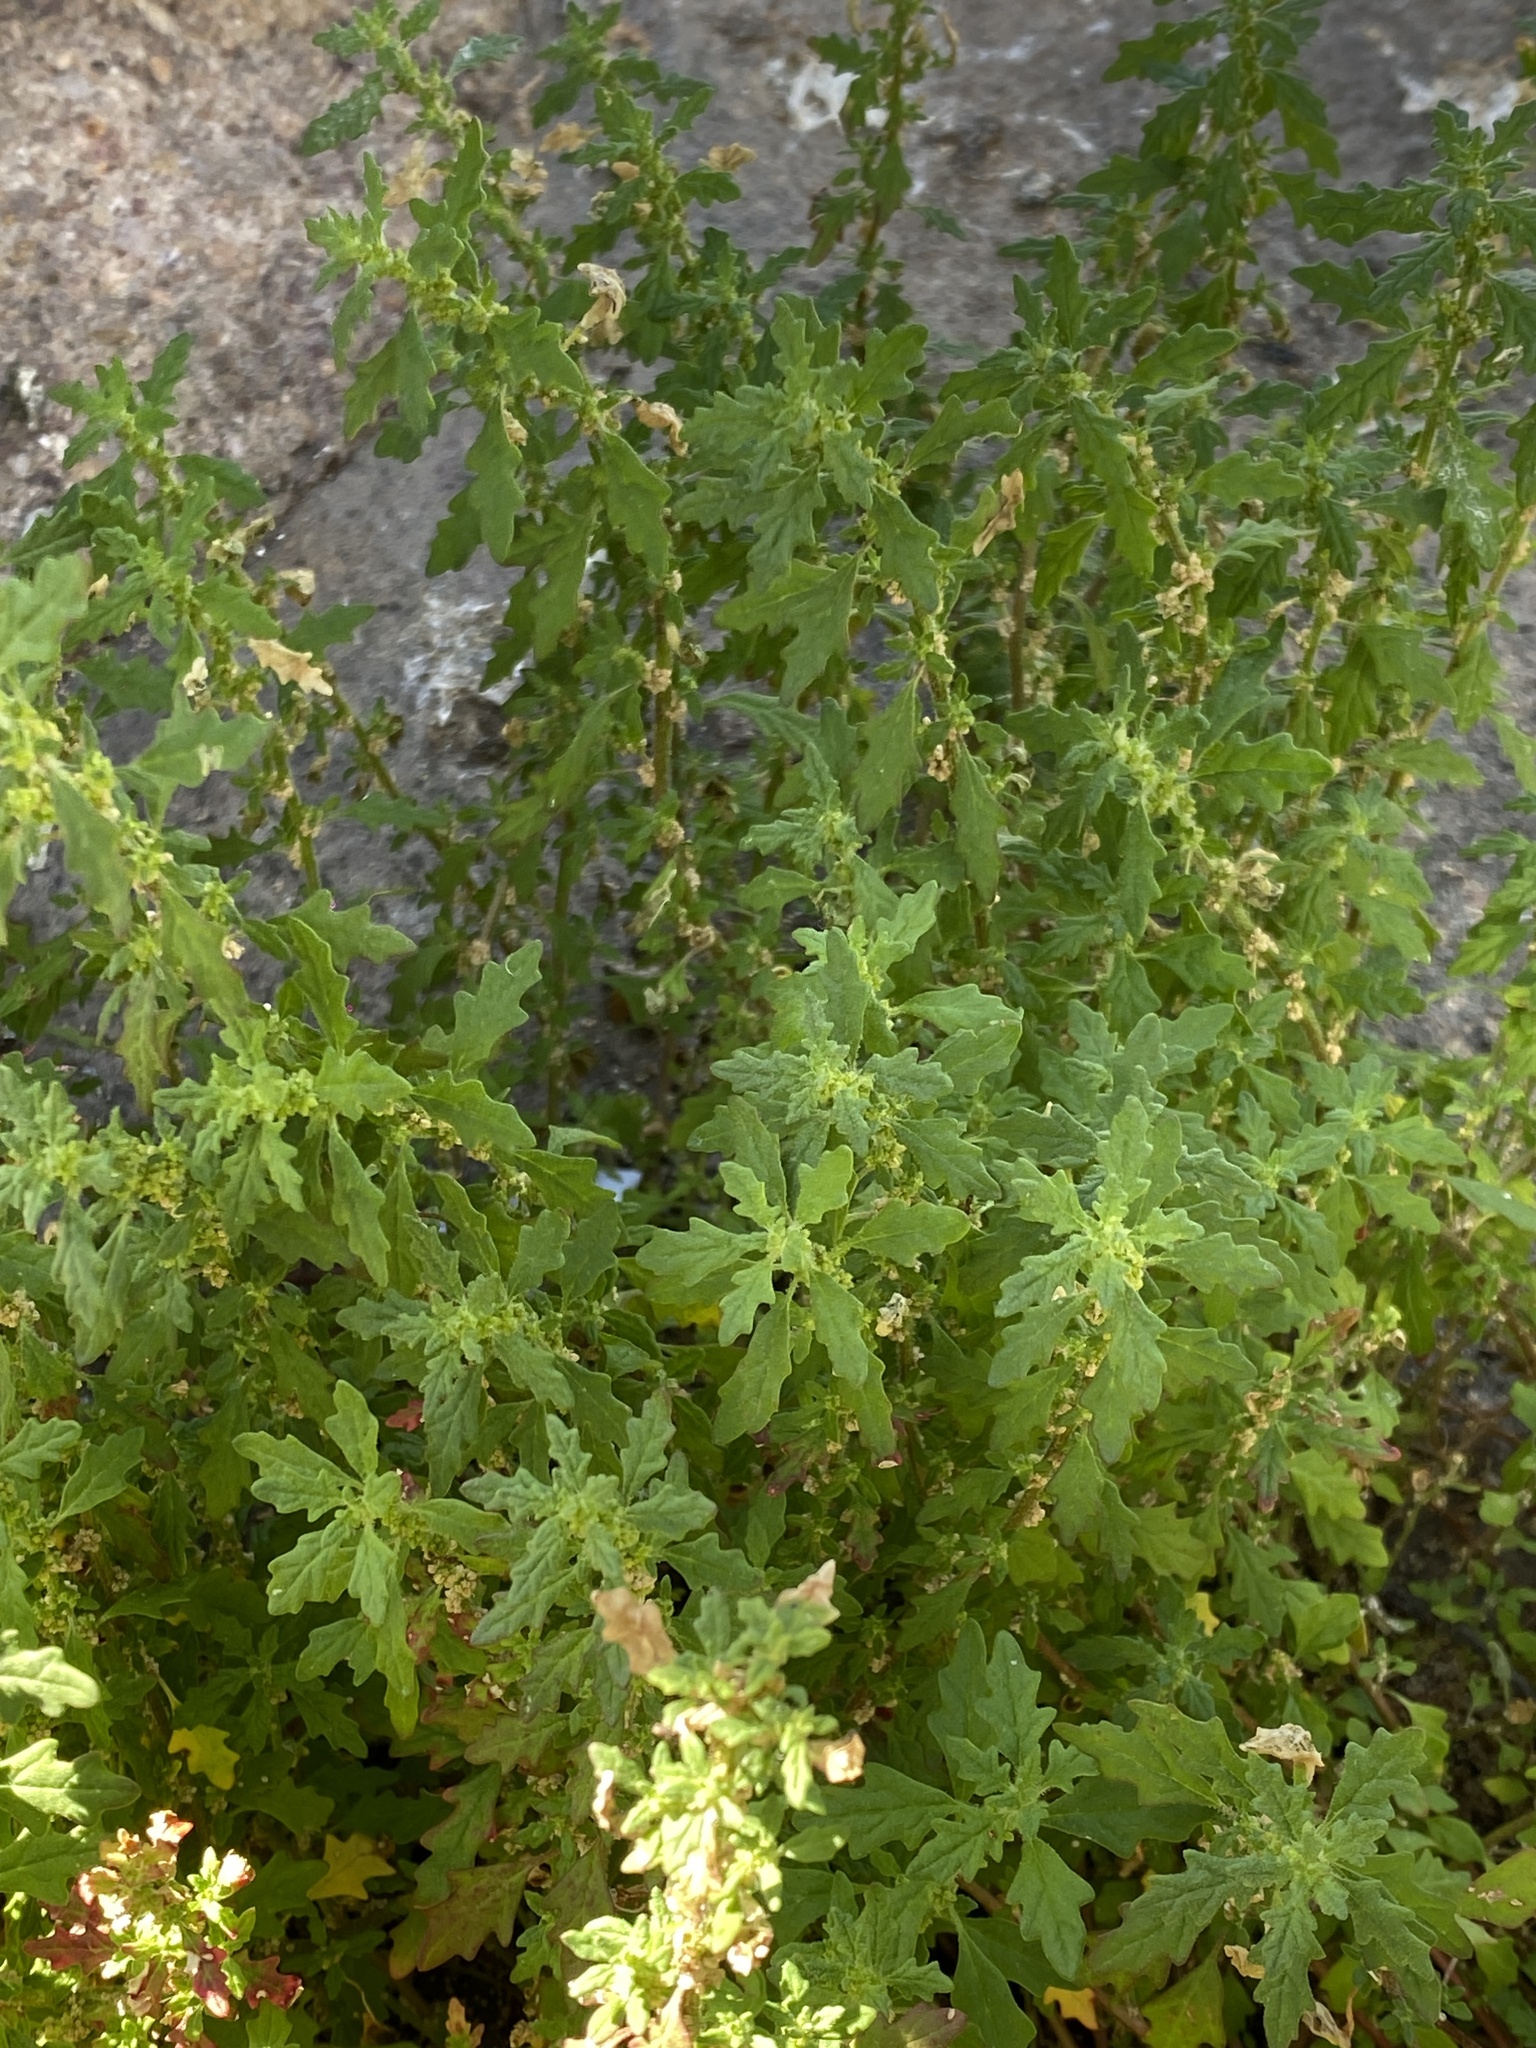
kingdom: Plantae
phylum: Tracheophyta
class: Magnoliopsida
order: Caryophyllales
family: Amaranthaceae
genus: Dysphania
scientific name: Dysphania pumilio
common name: Clammy goosefoot
